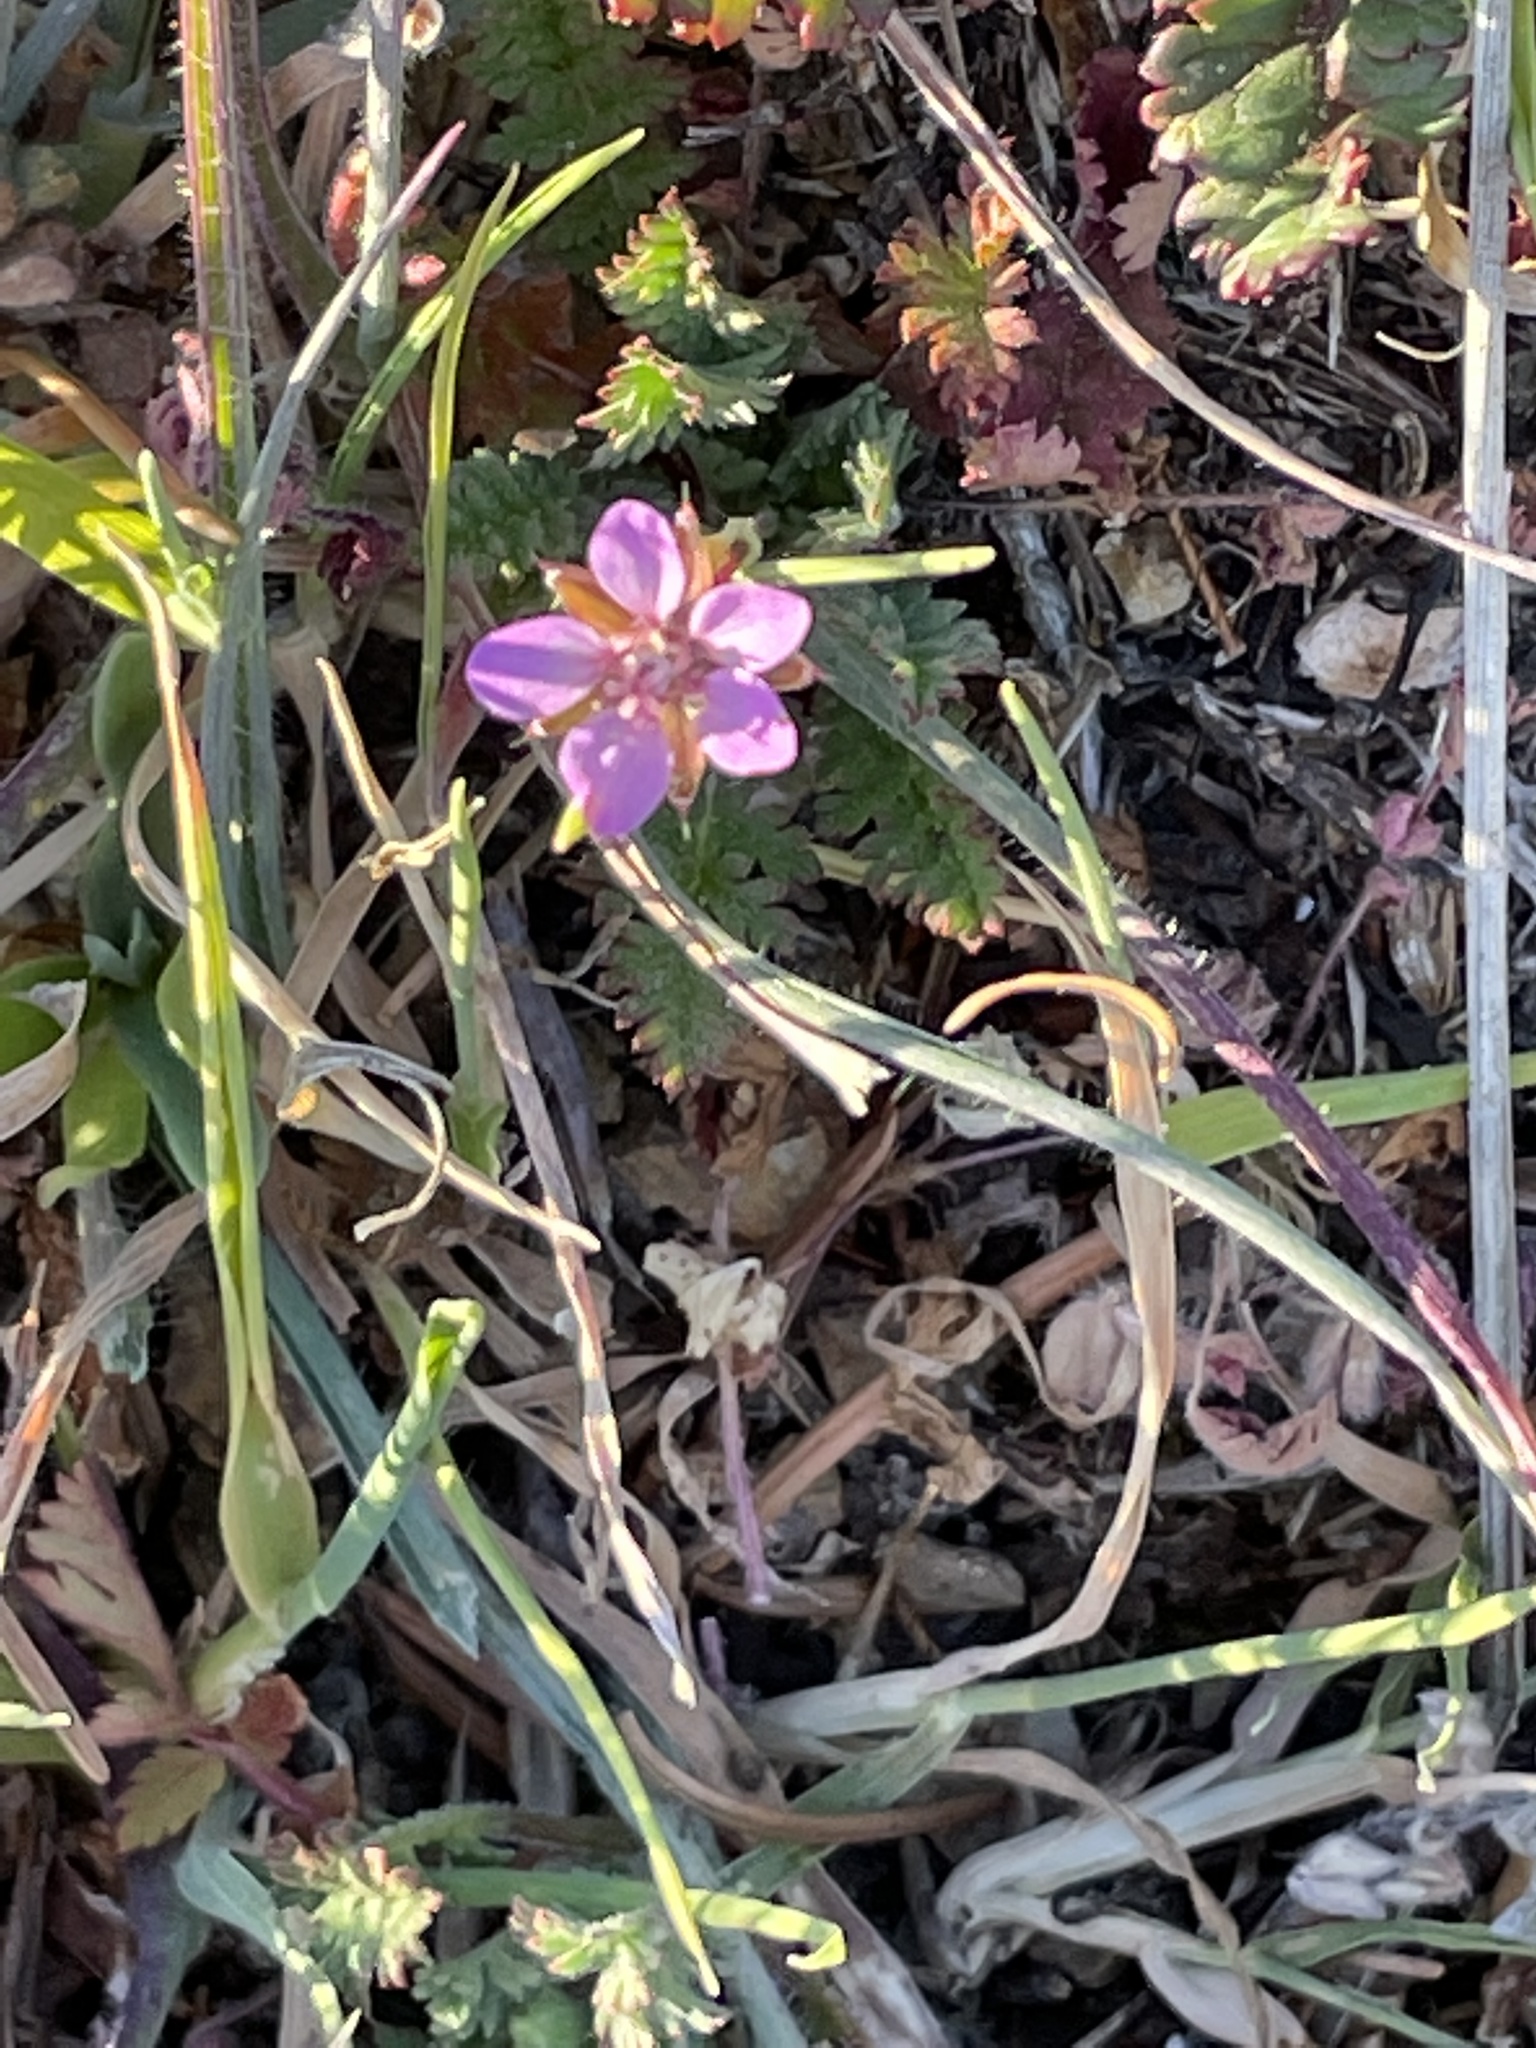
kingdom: Plantae
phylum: Tracheophyta
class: Magnoliopsida
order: Geraniales
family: Geraniaceae
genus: Erodium
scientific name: Erodium cicutarium
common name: Common stork's-bill
